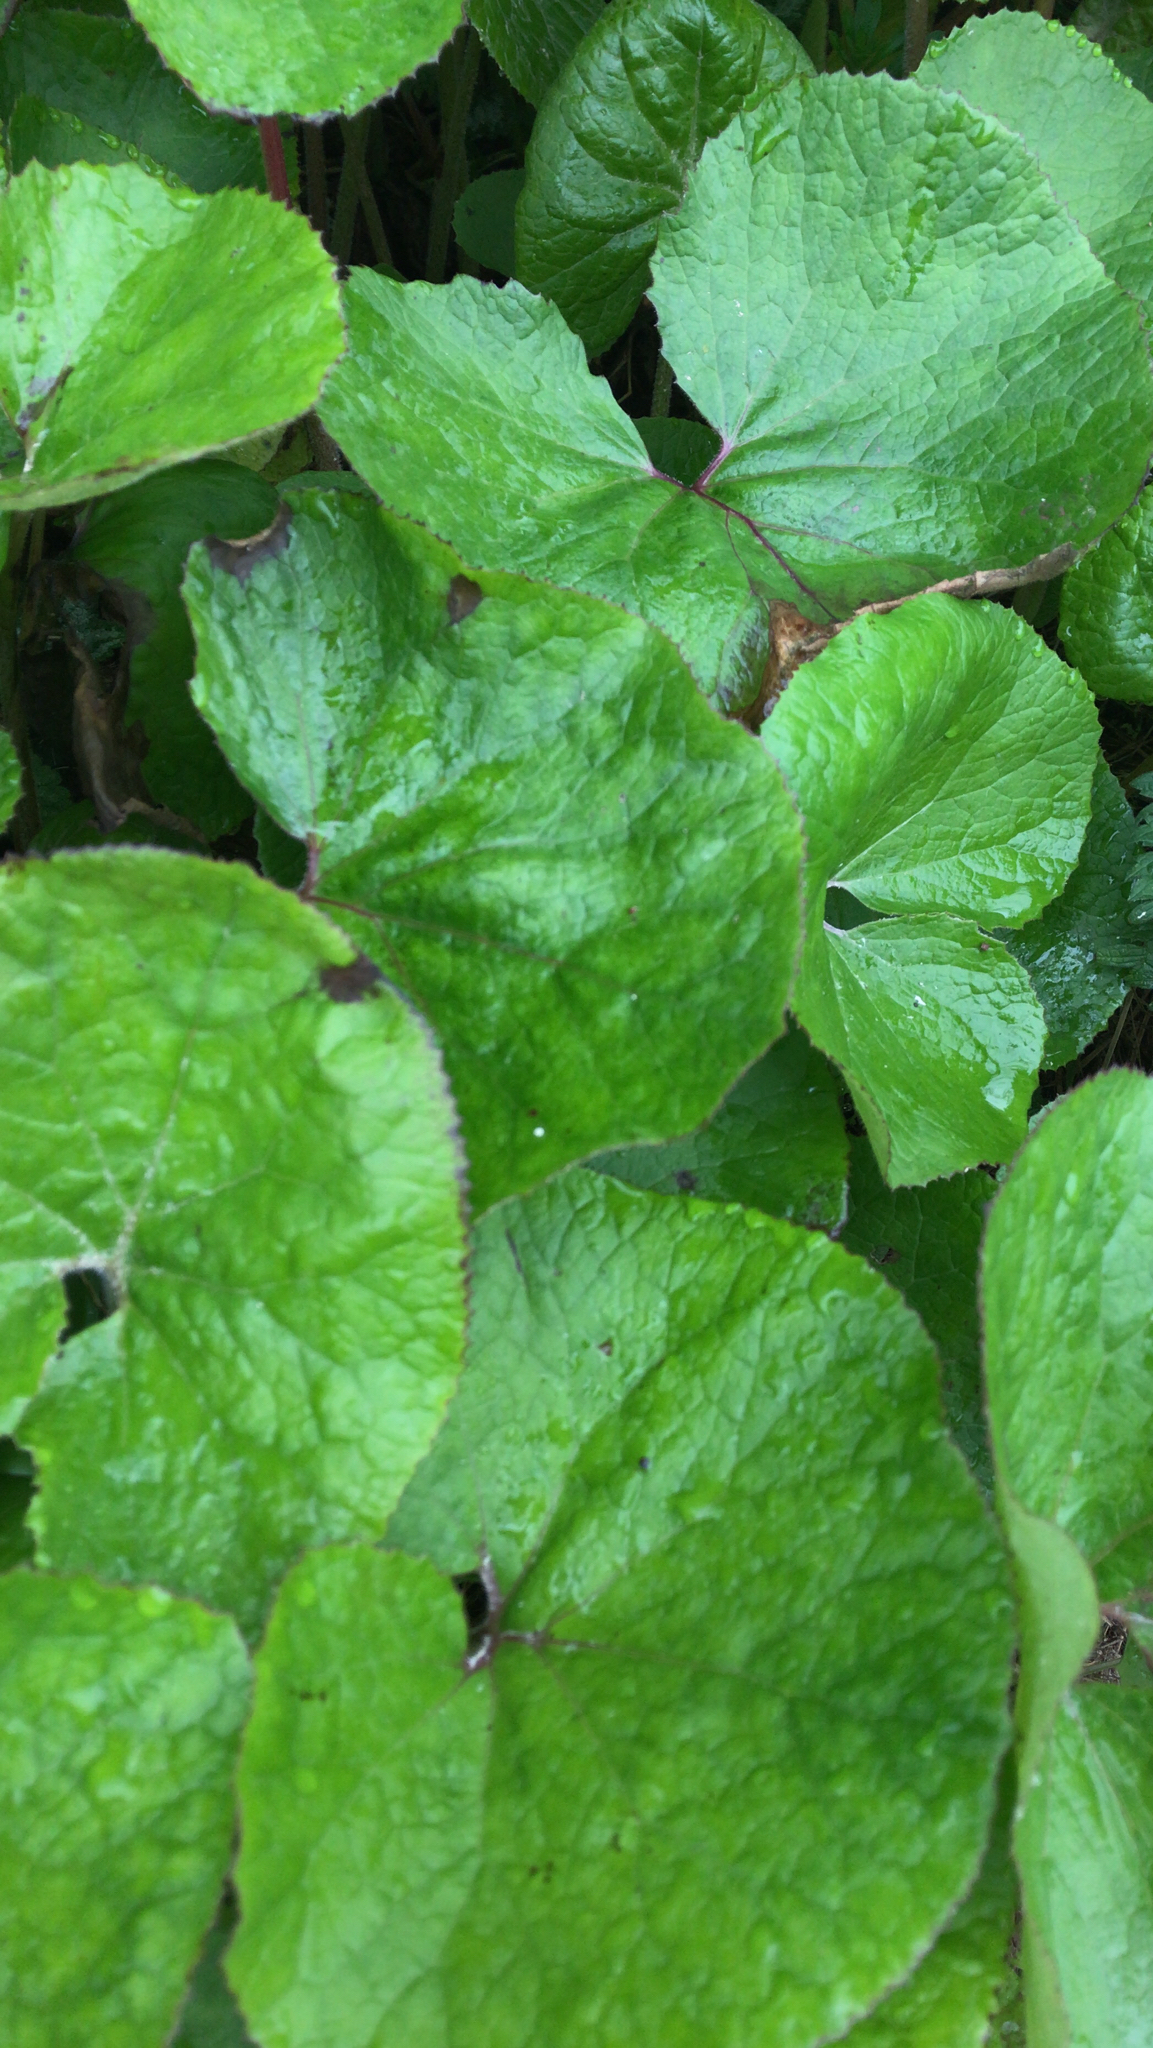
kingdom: Plantae
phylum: Tracheophyta
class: Magnoliopsida
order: Asterales
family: Asteraceae
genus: Petasites
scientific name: Petasites pyrenaicus
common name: Winter heliotrope
